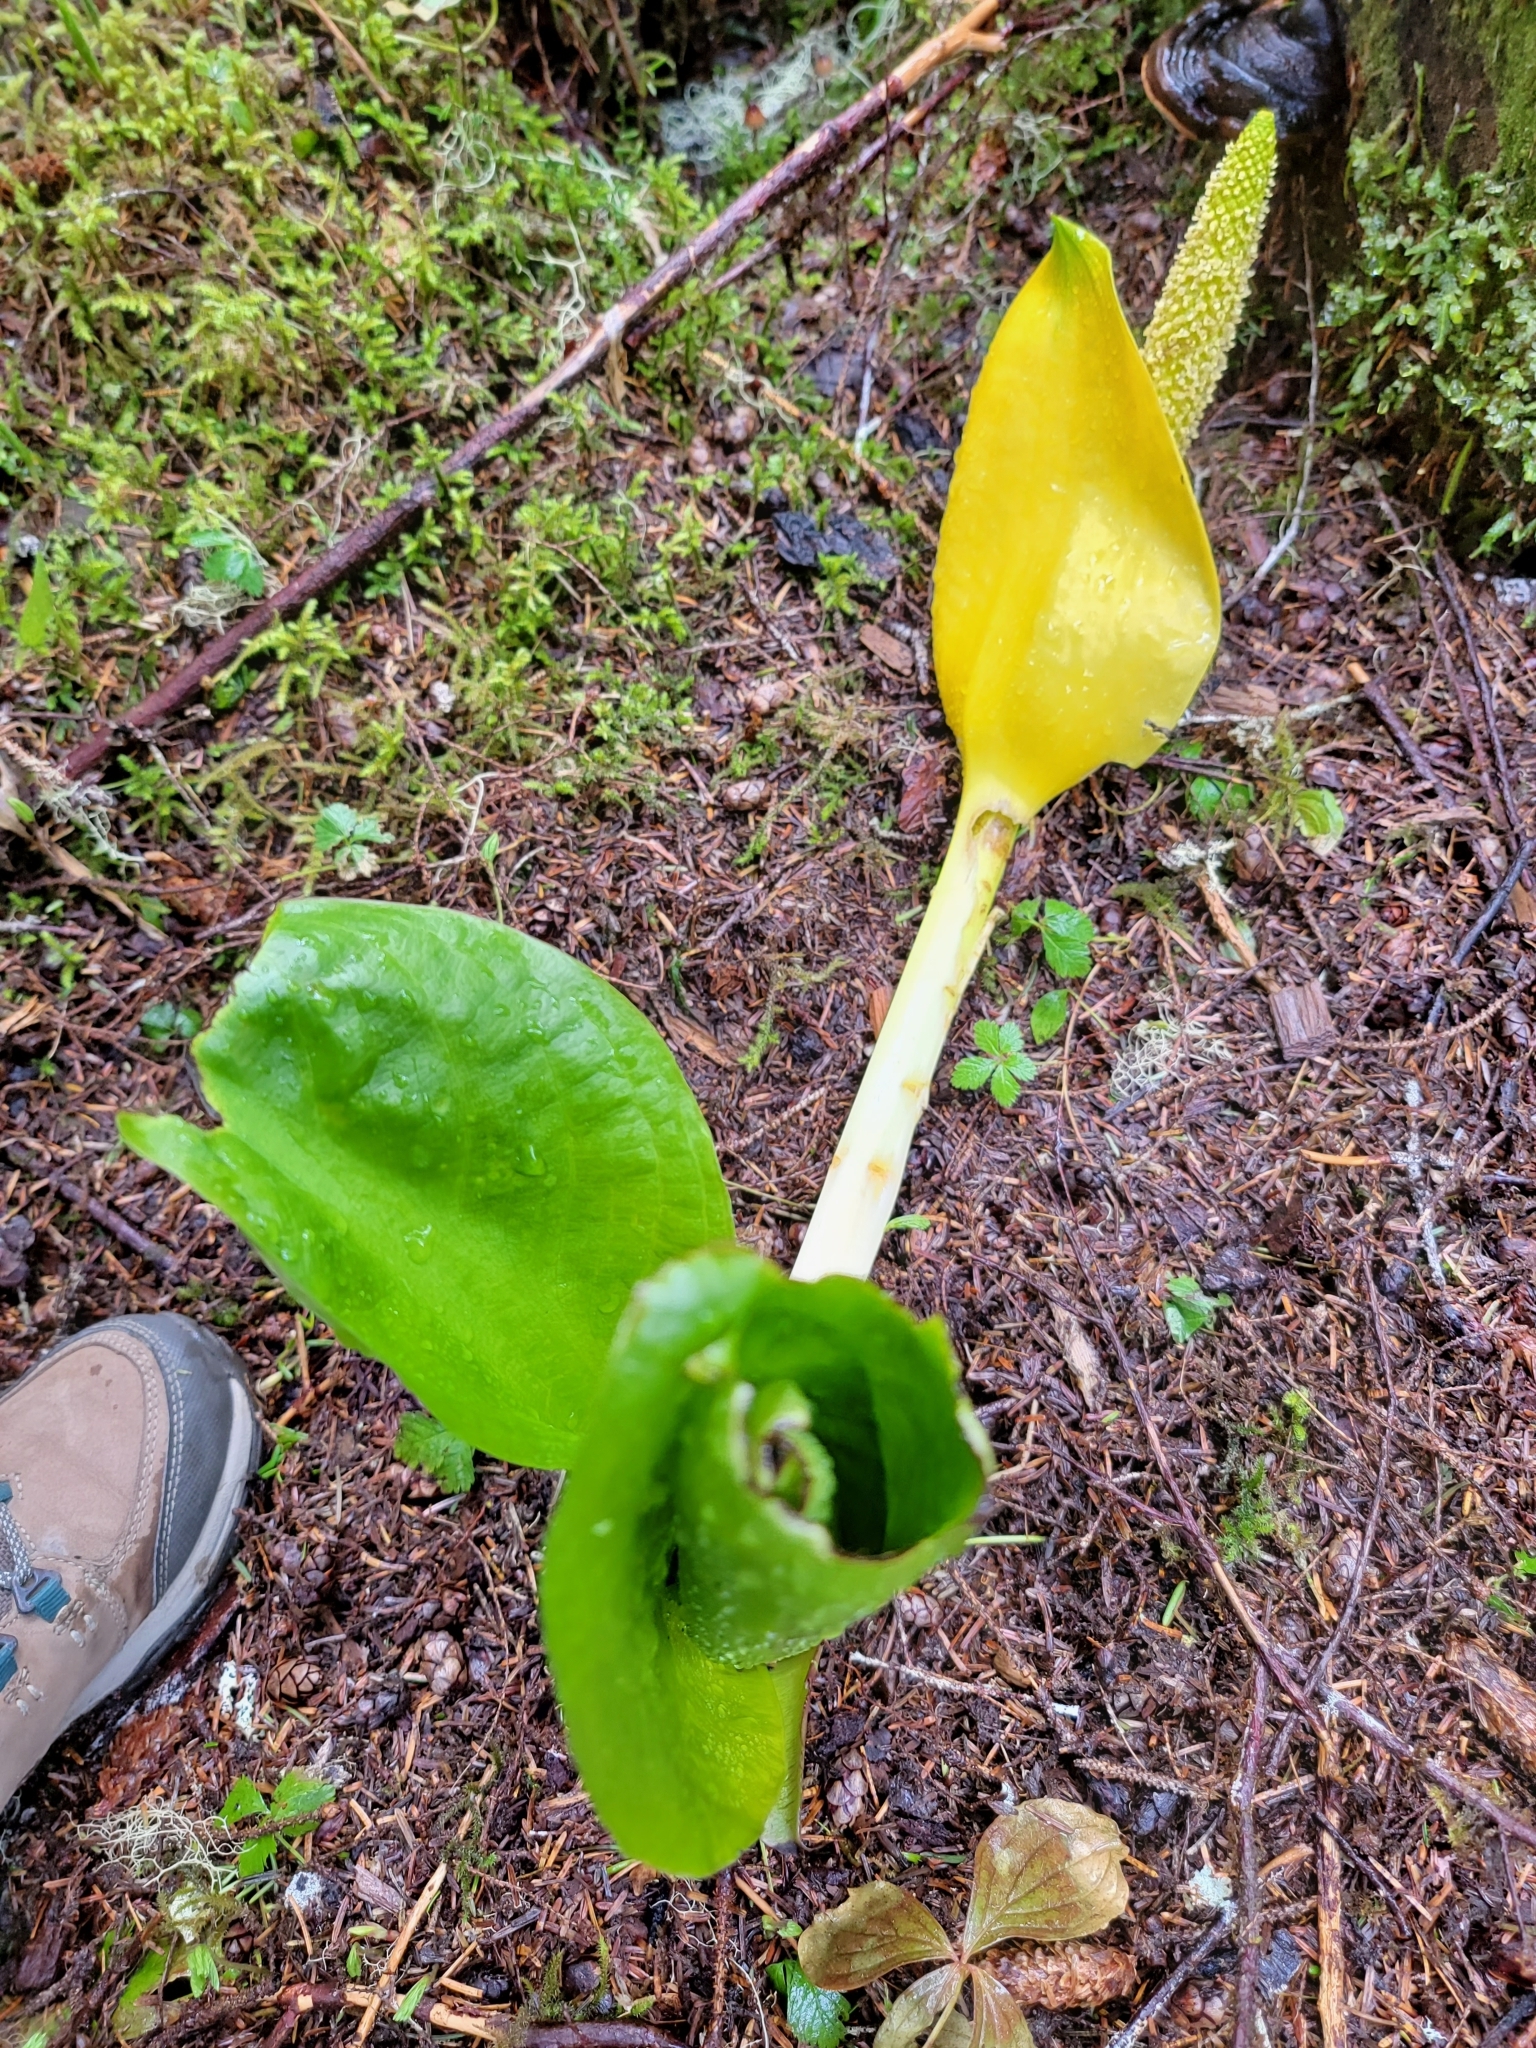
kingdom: Plantae
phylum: Tracheophyta
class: Liliopsida
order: Alismatales
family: Araceae
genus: Lysichiton
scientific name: Lysichiton americanus
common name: American skunk cabbage
